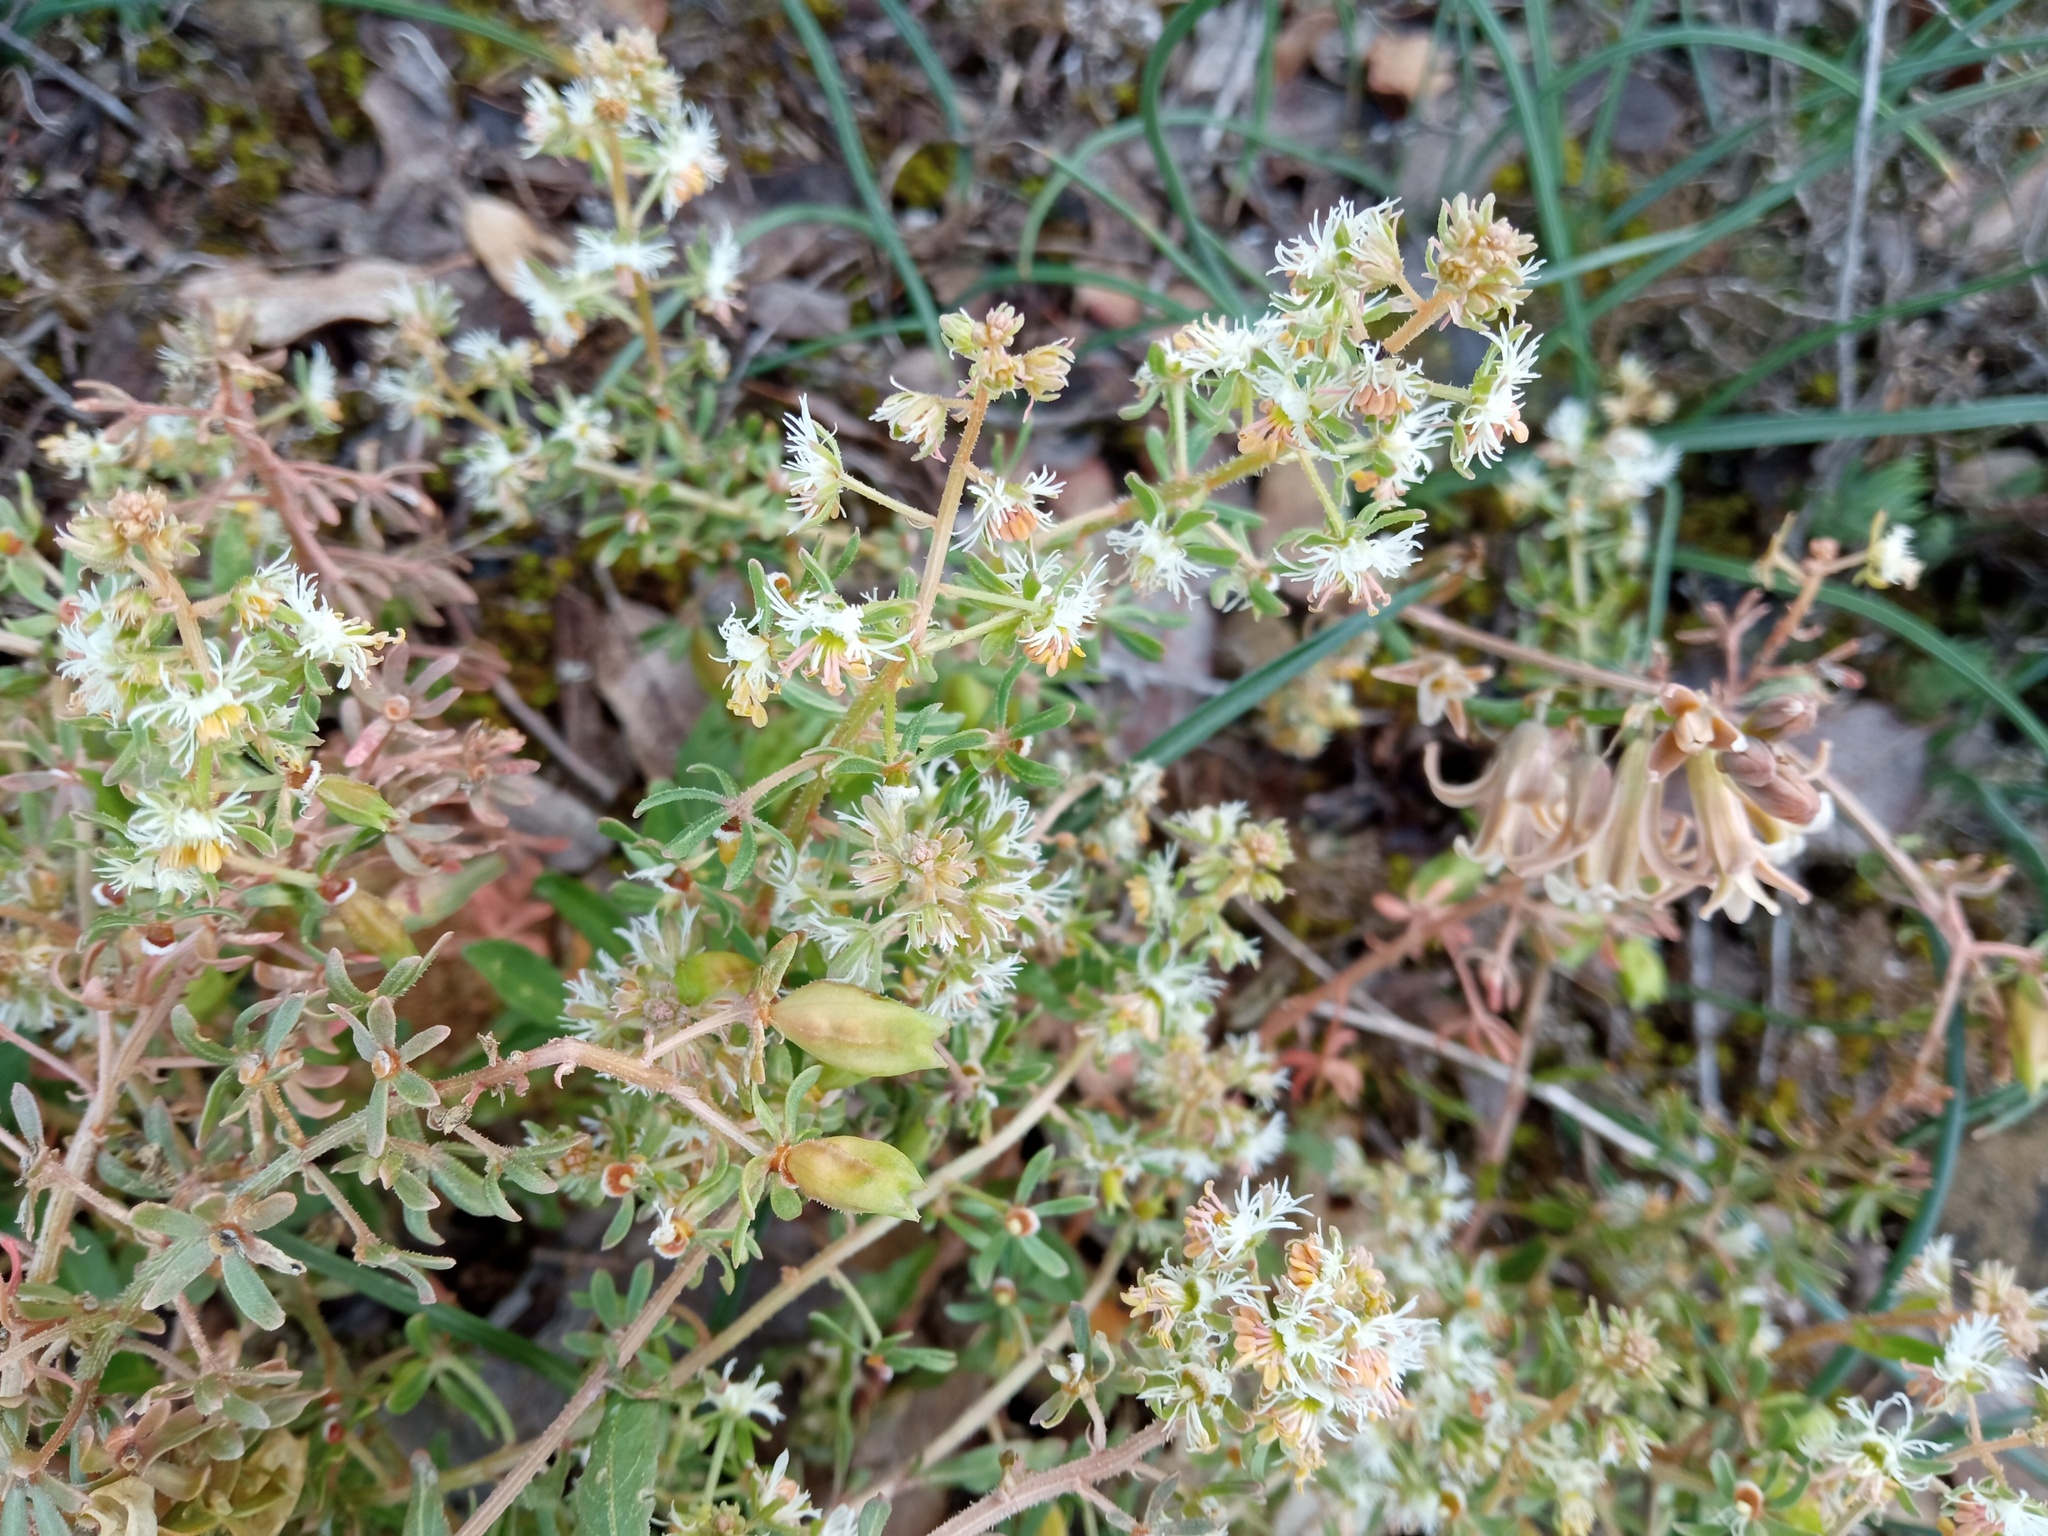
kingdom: Plantae
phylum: Tracheophyta
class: Magnoliopsida
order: Brassicales
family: Resedaceae
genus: Reseda
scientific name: Reseda phyteuma
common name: Corn mignonette
